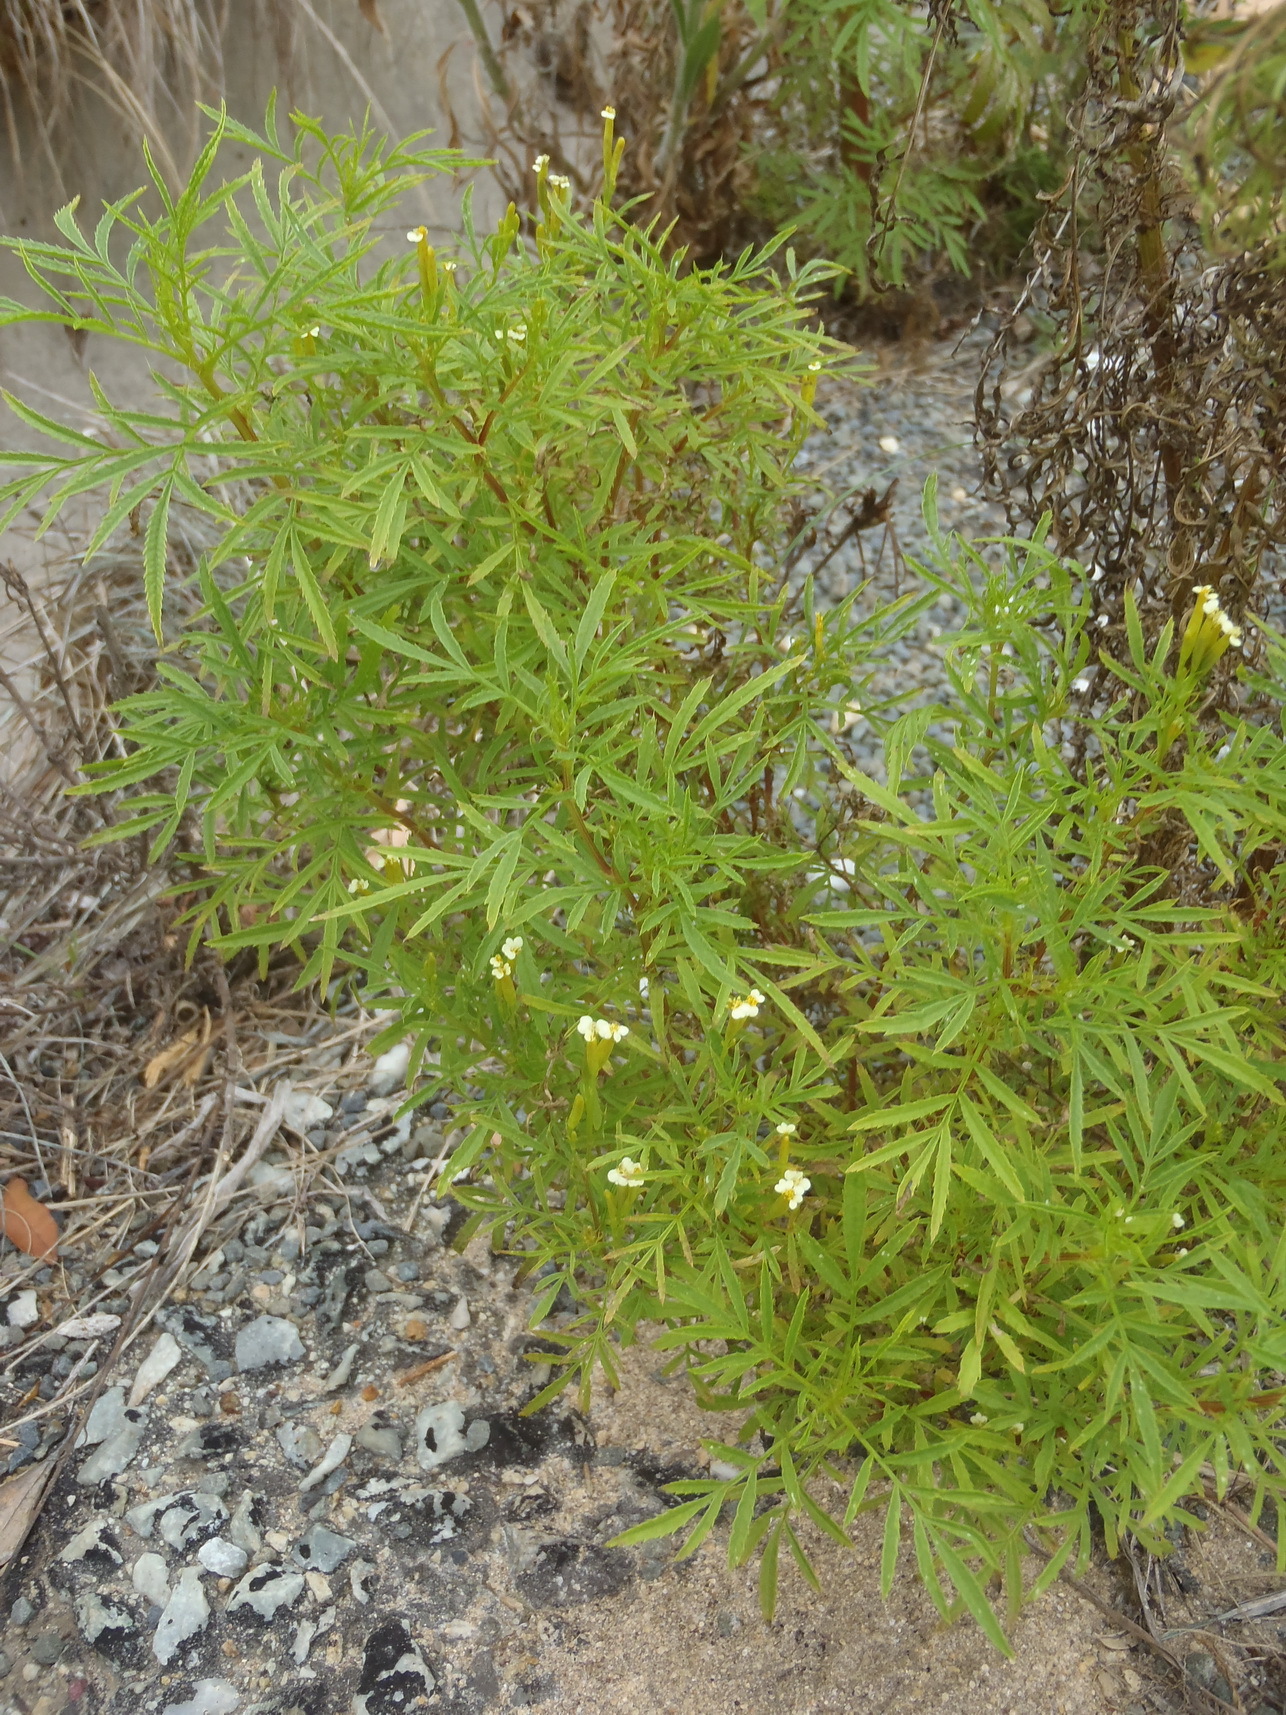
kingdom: Plantae
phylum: Tracheophyta
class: Magnoliopsida
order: Asterales
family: Asteraceae
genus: Tagetes
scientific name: Tagetes minuta
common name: Muster john henry
